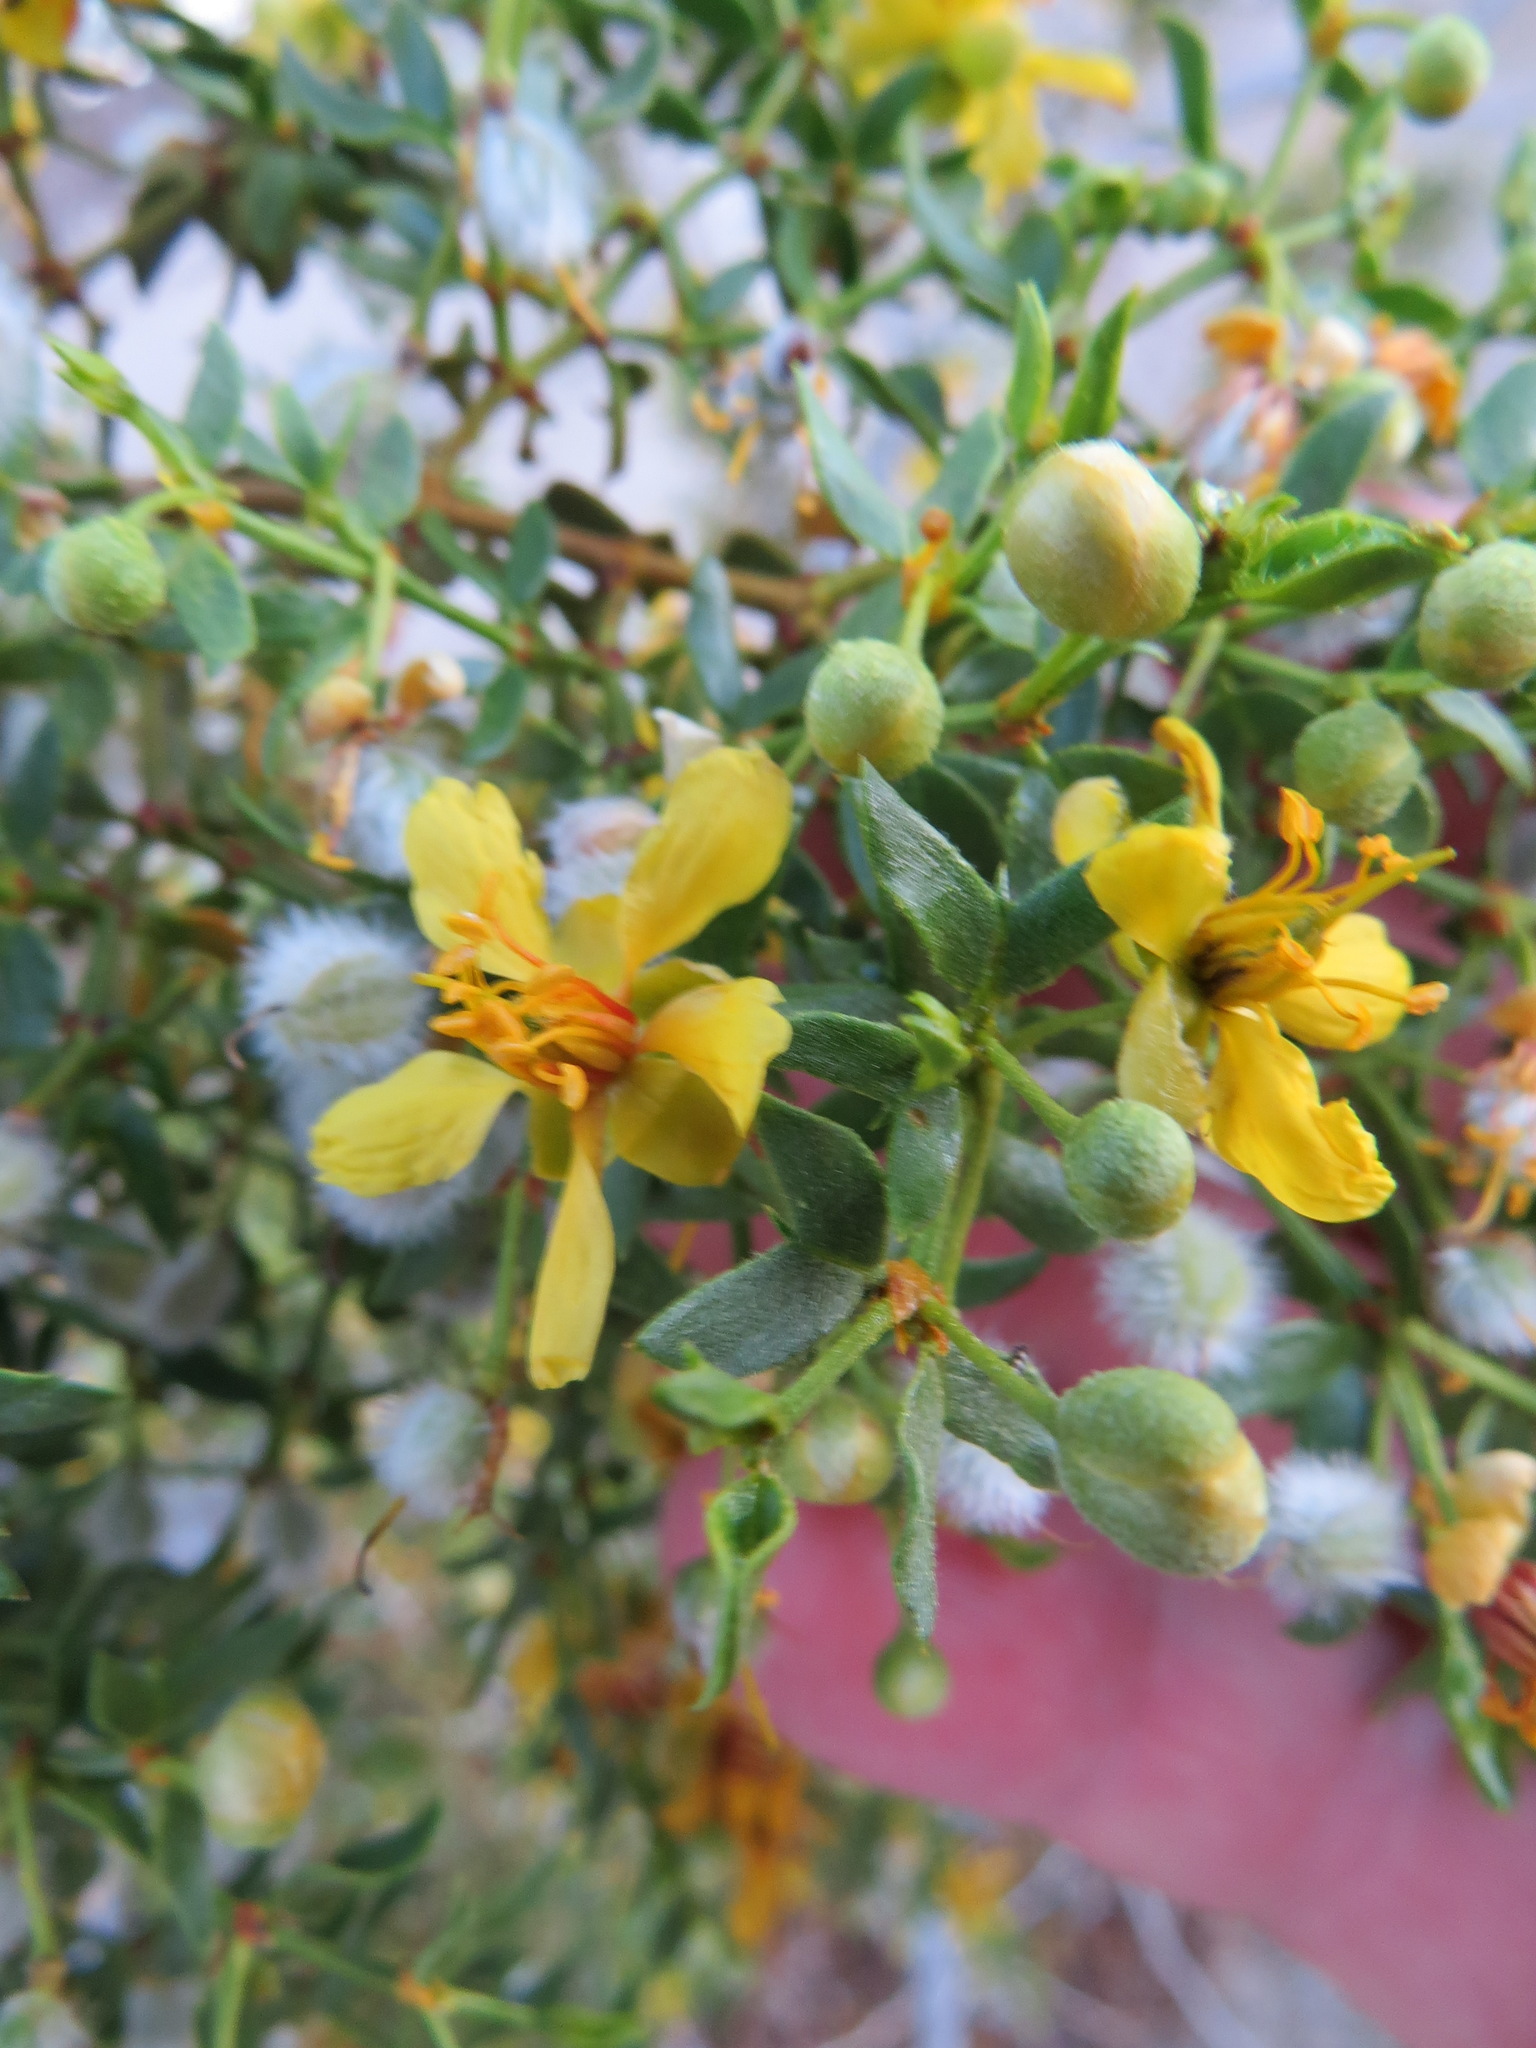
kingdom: Plantae
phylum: Tracheophyta
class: Magnoliopsida
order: Zygophyllales
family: Zygophyllaceae
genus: Larrea
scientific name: Larrea tridentata
